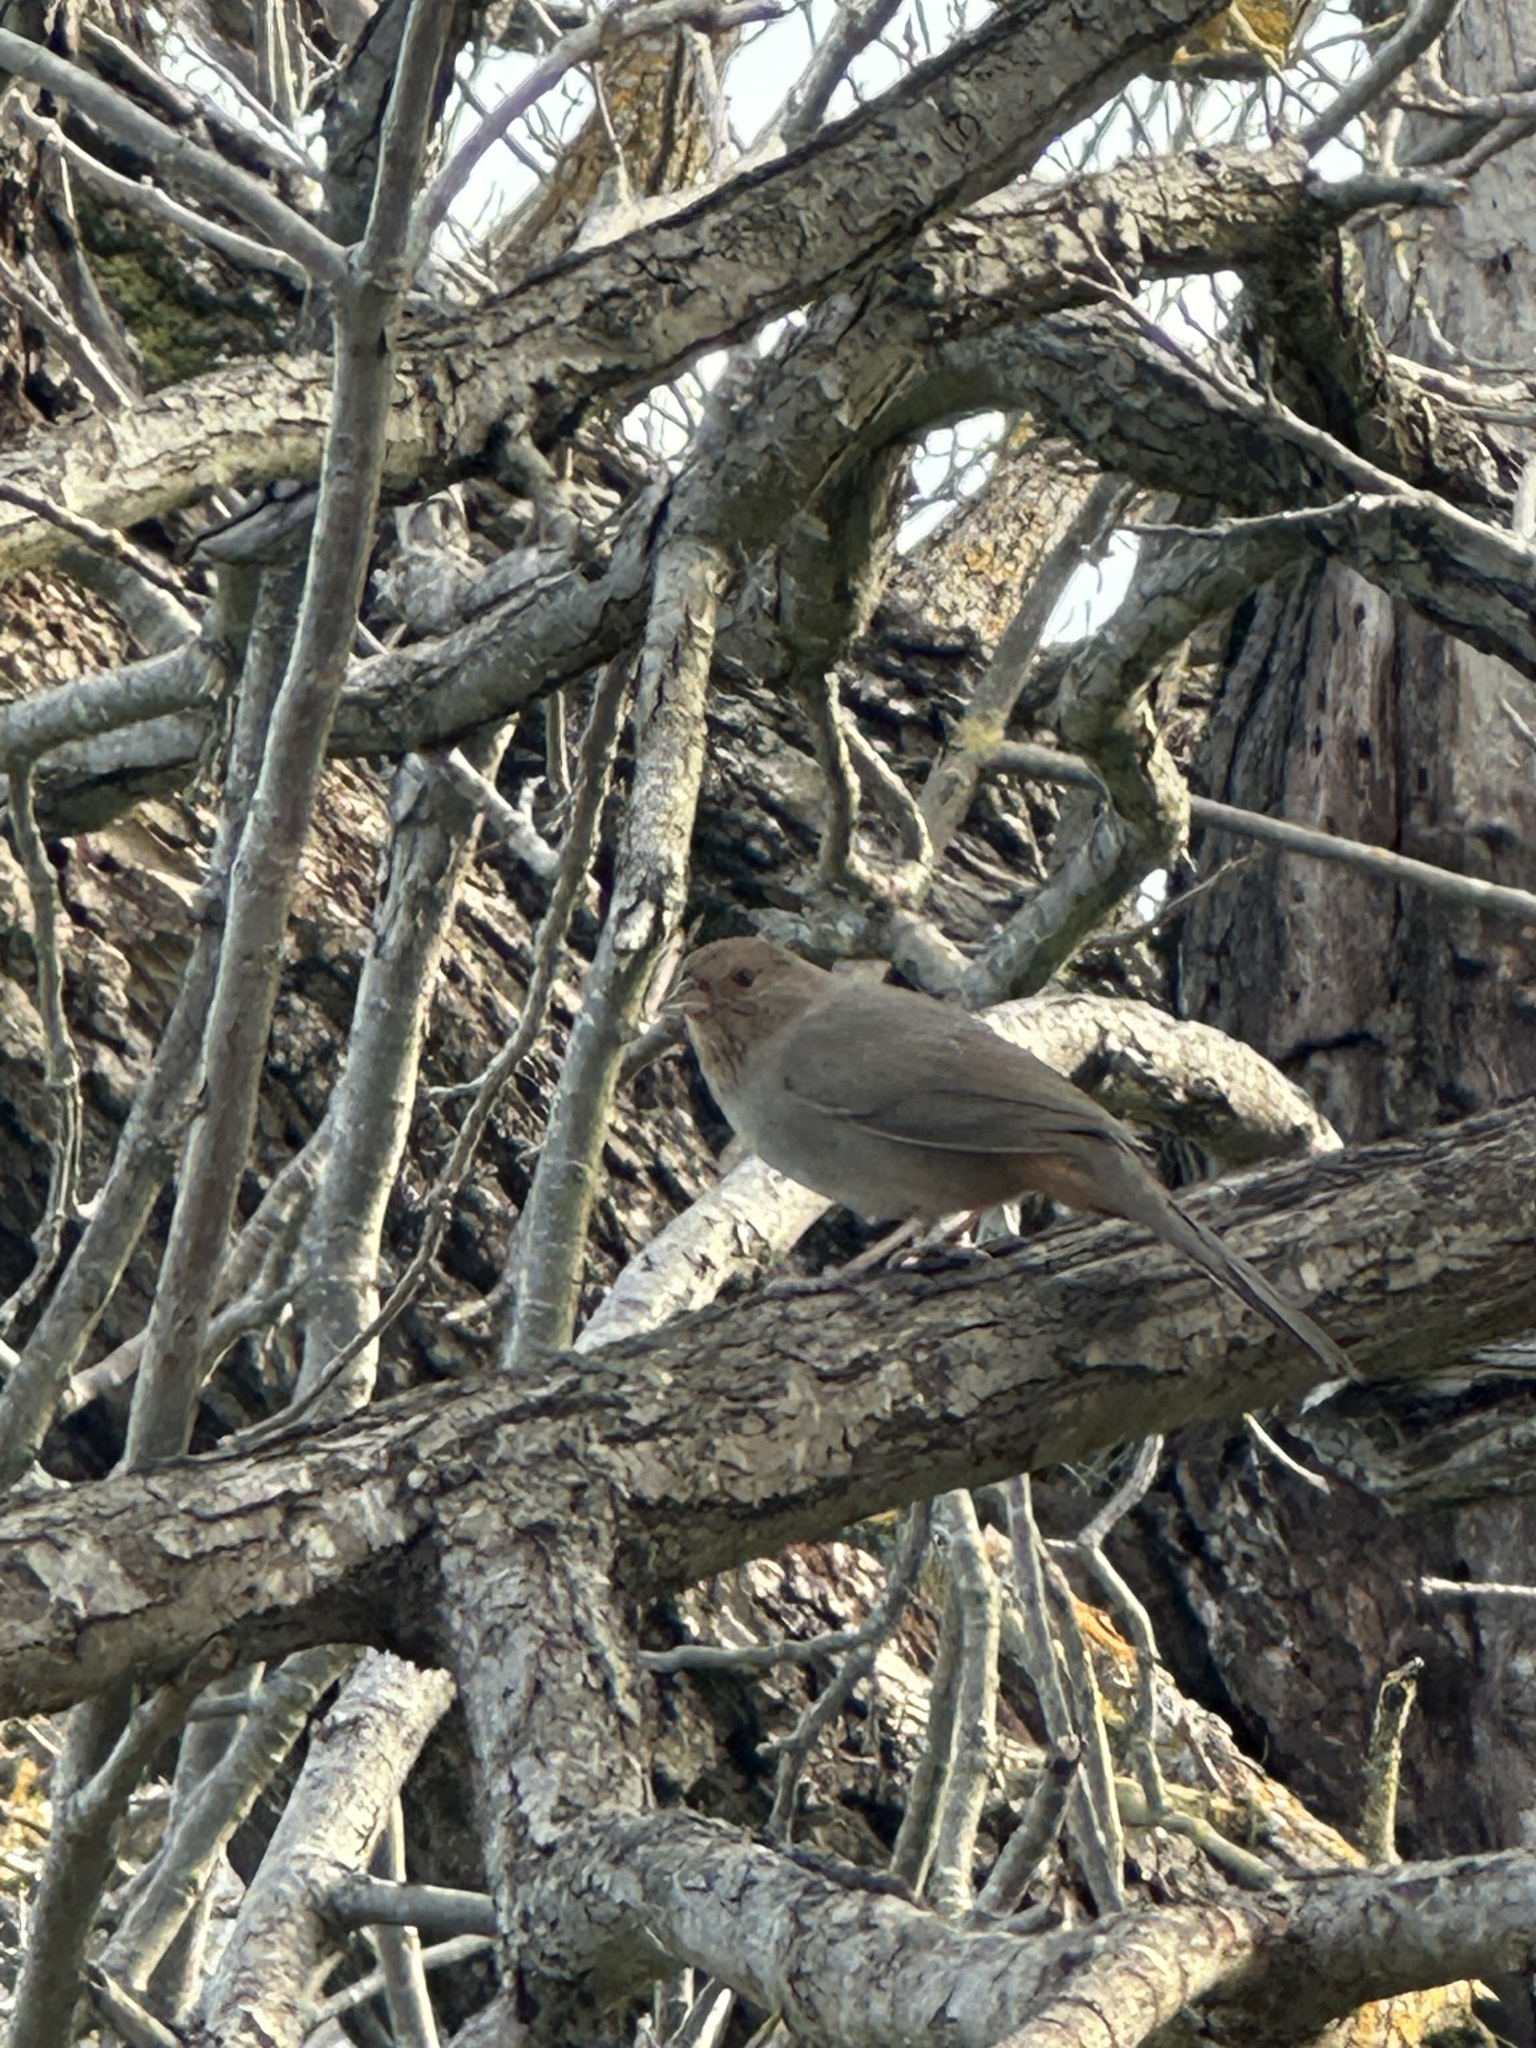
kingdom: Animalia
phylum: Chordata
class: Aves
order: Passeriformes
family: Passerellidae
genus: Melozone
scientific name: Melozone crissalis
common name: California towhee
